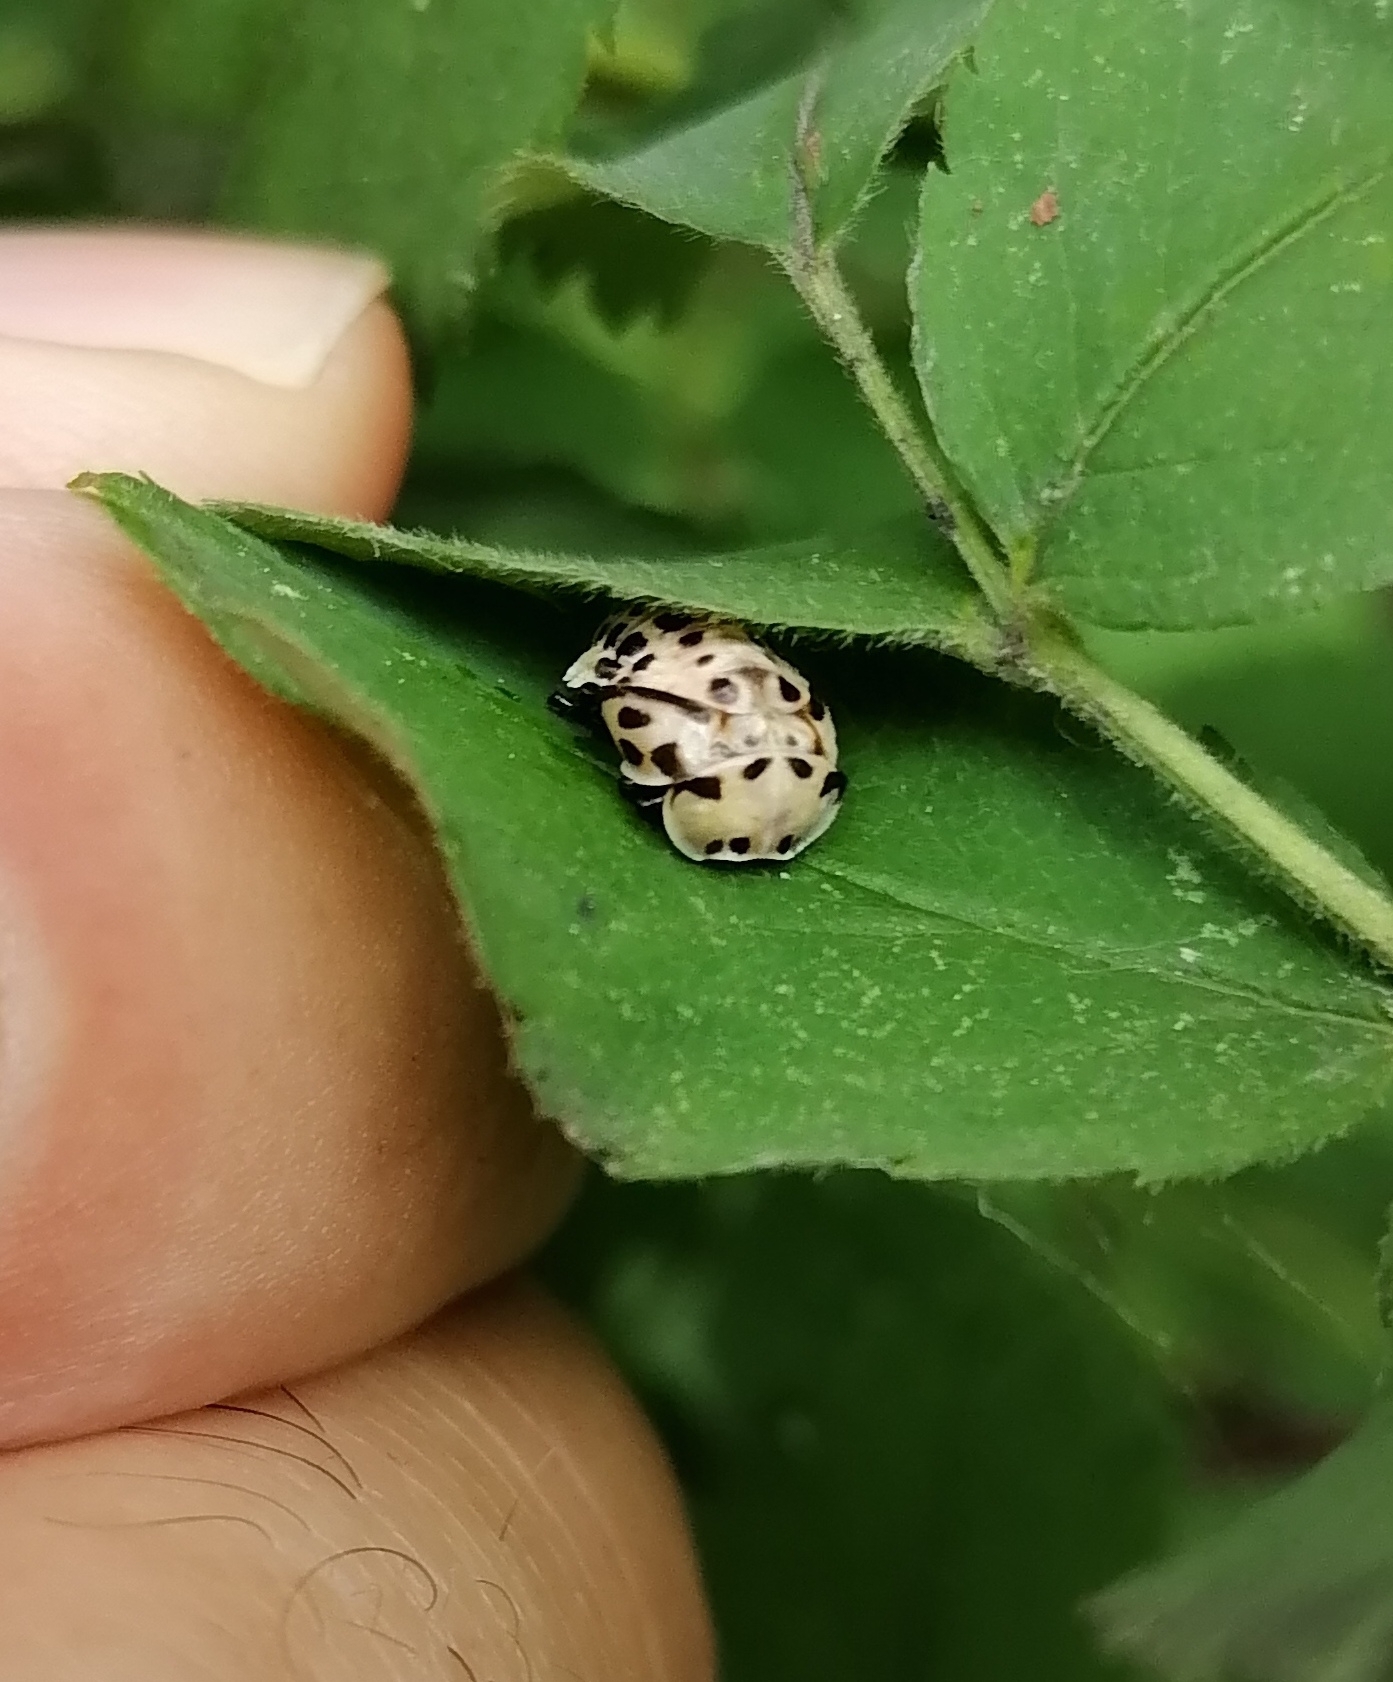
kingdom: Animalia
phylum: Arthropoda
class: Insecta
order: Coleoptera
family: Coccinellidae
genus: Anatis
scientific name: Anatis ocellata
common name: Eyed ladybird
